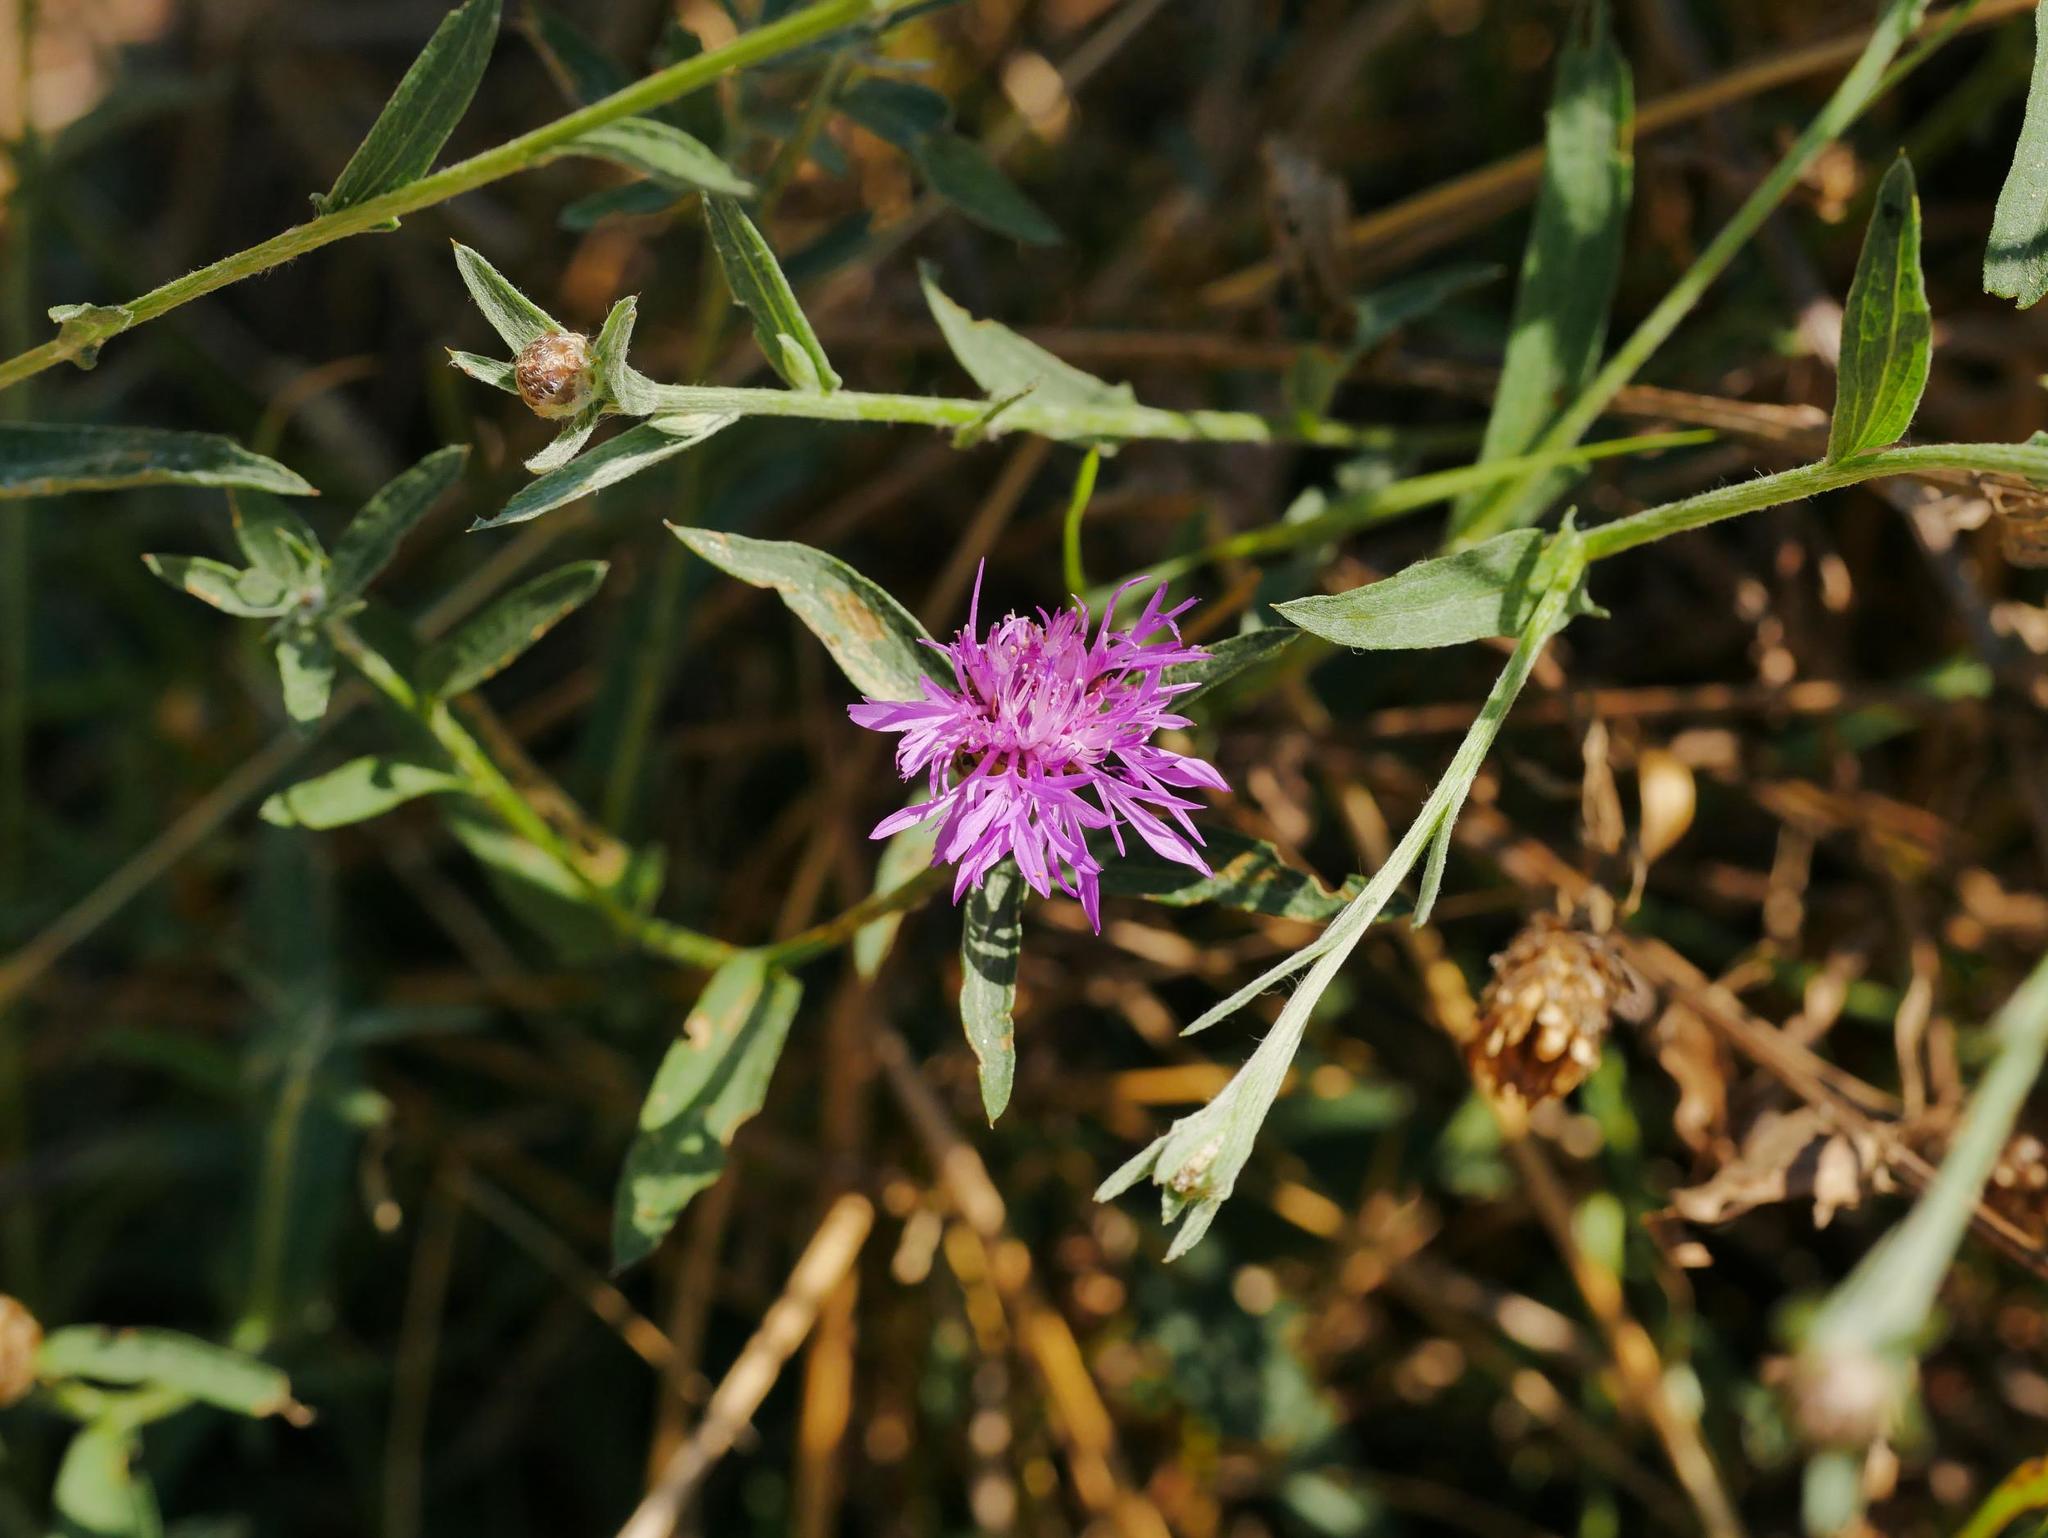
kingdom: Plantae
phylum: Tracheophyta
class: Magnoliopsida
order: Asterales
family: Asteraceae
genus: Centaurea
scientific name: Centaurea jacea
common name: Brown knapweed
